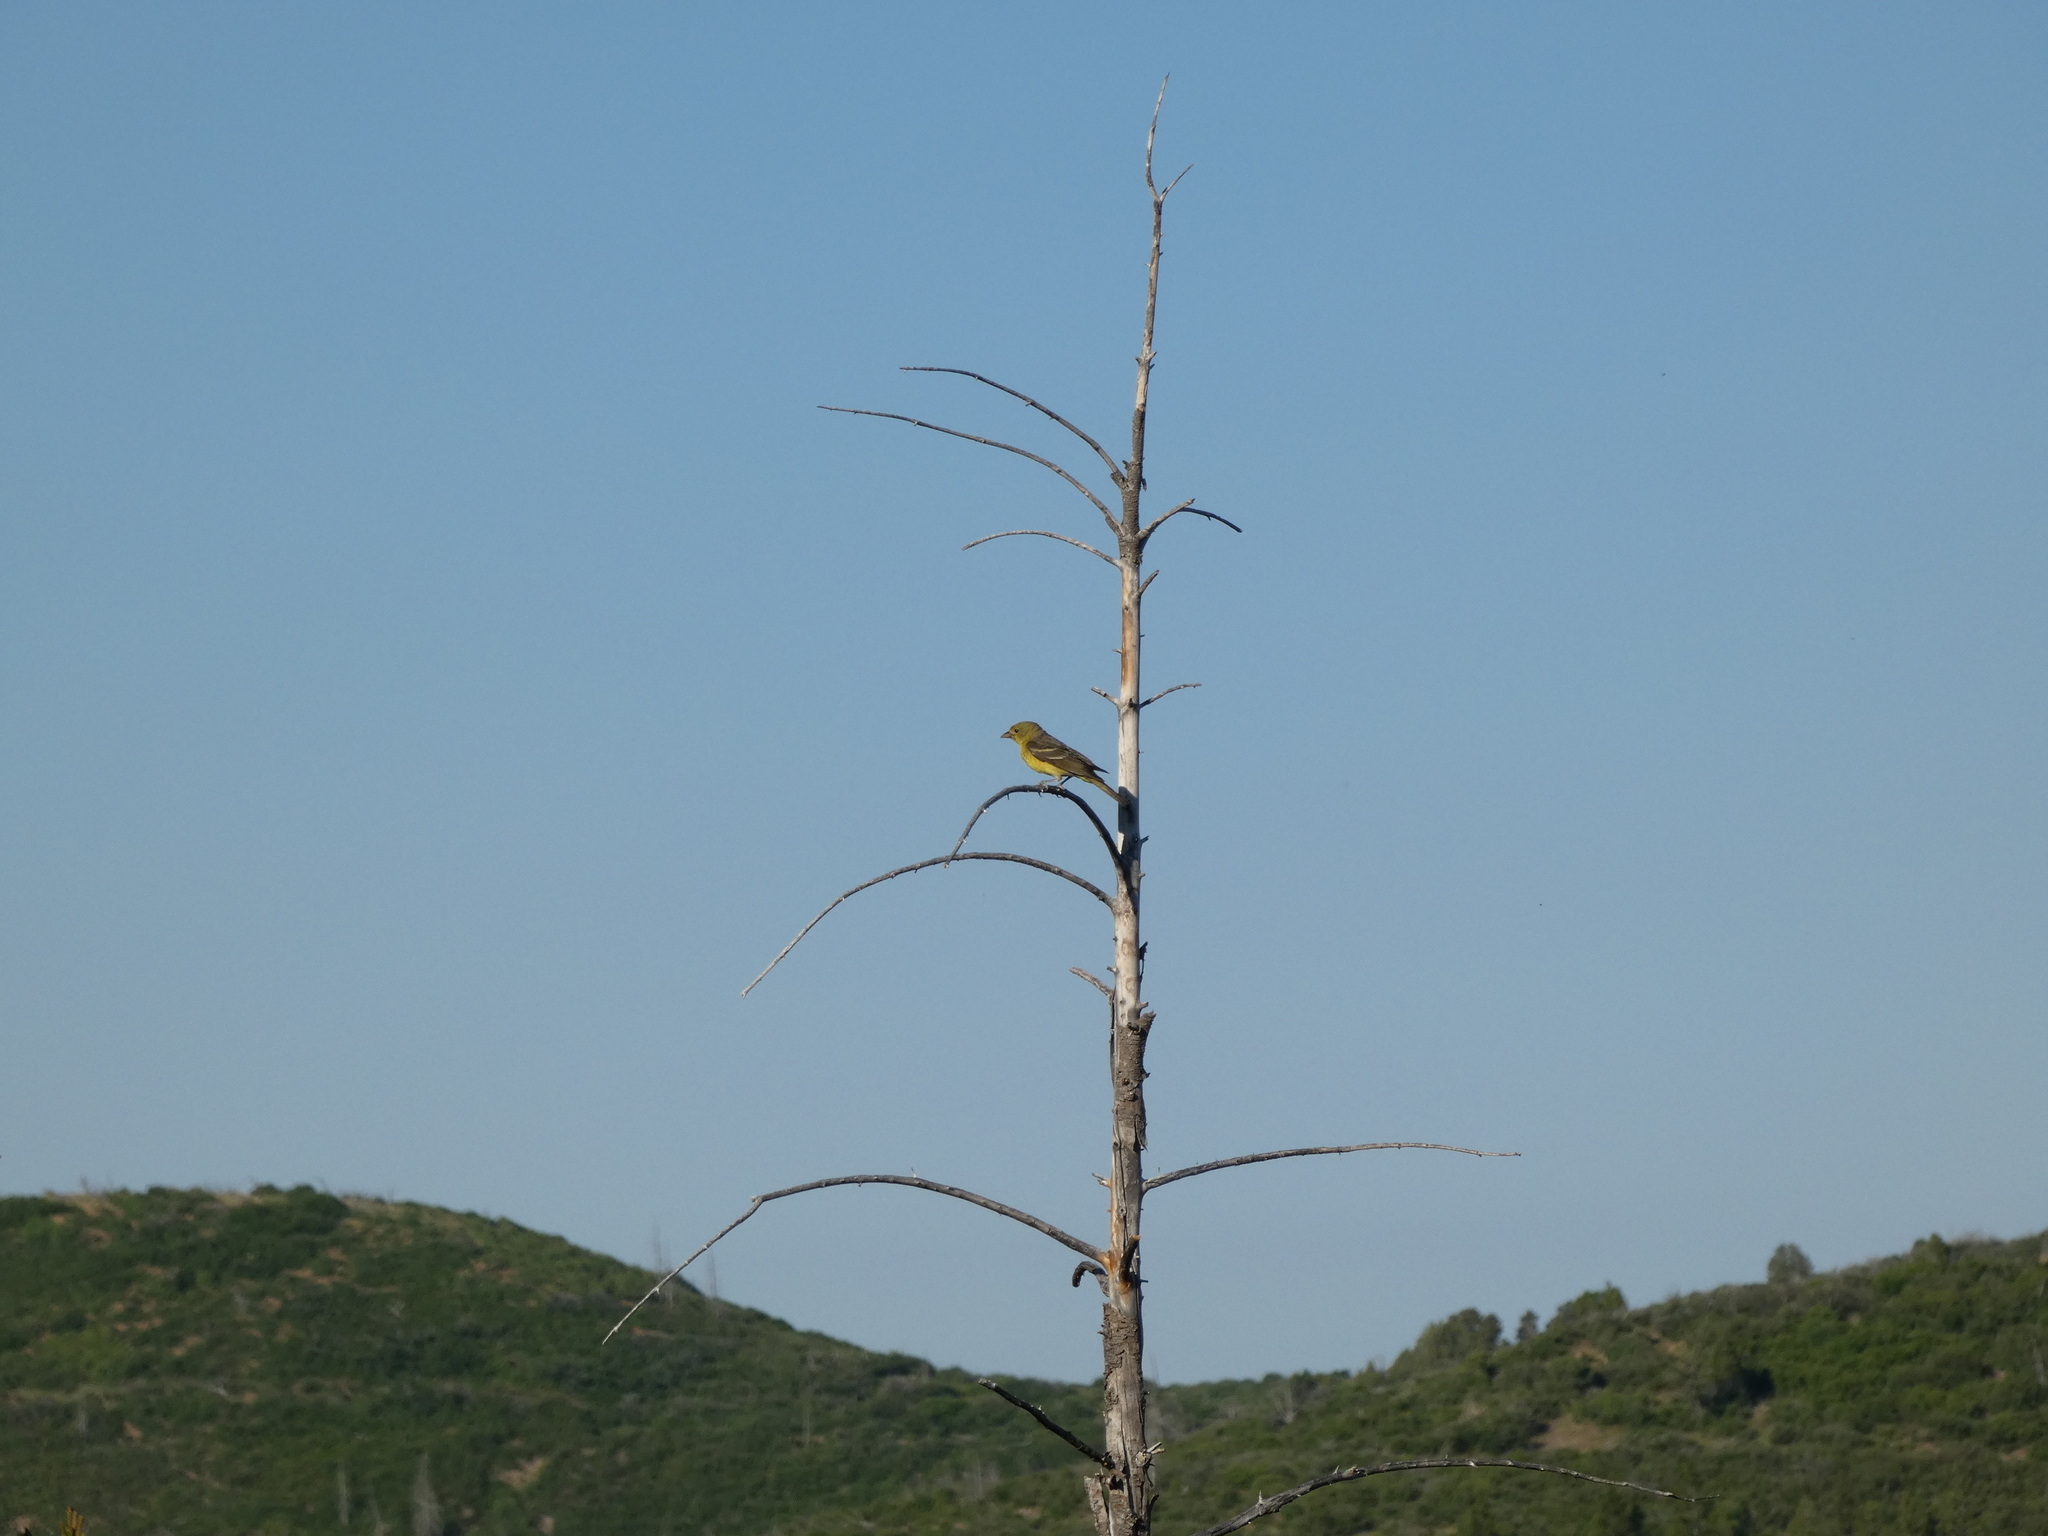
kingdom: Animalia
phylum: Chordata
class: Aves
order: Passeriformes
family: Cardinalidae
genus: Piranga
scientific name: Piranga ludoviciana
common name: Western tanager
